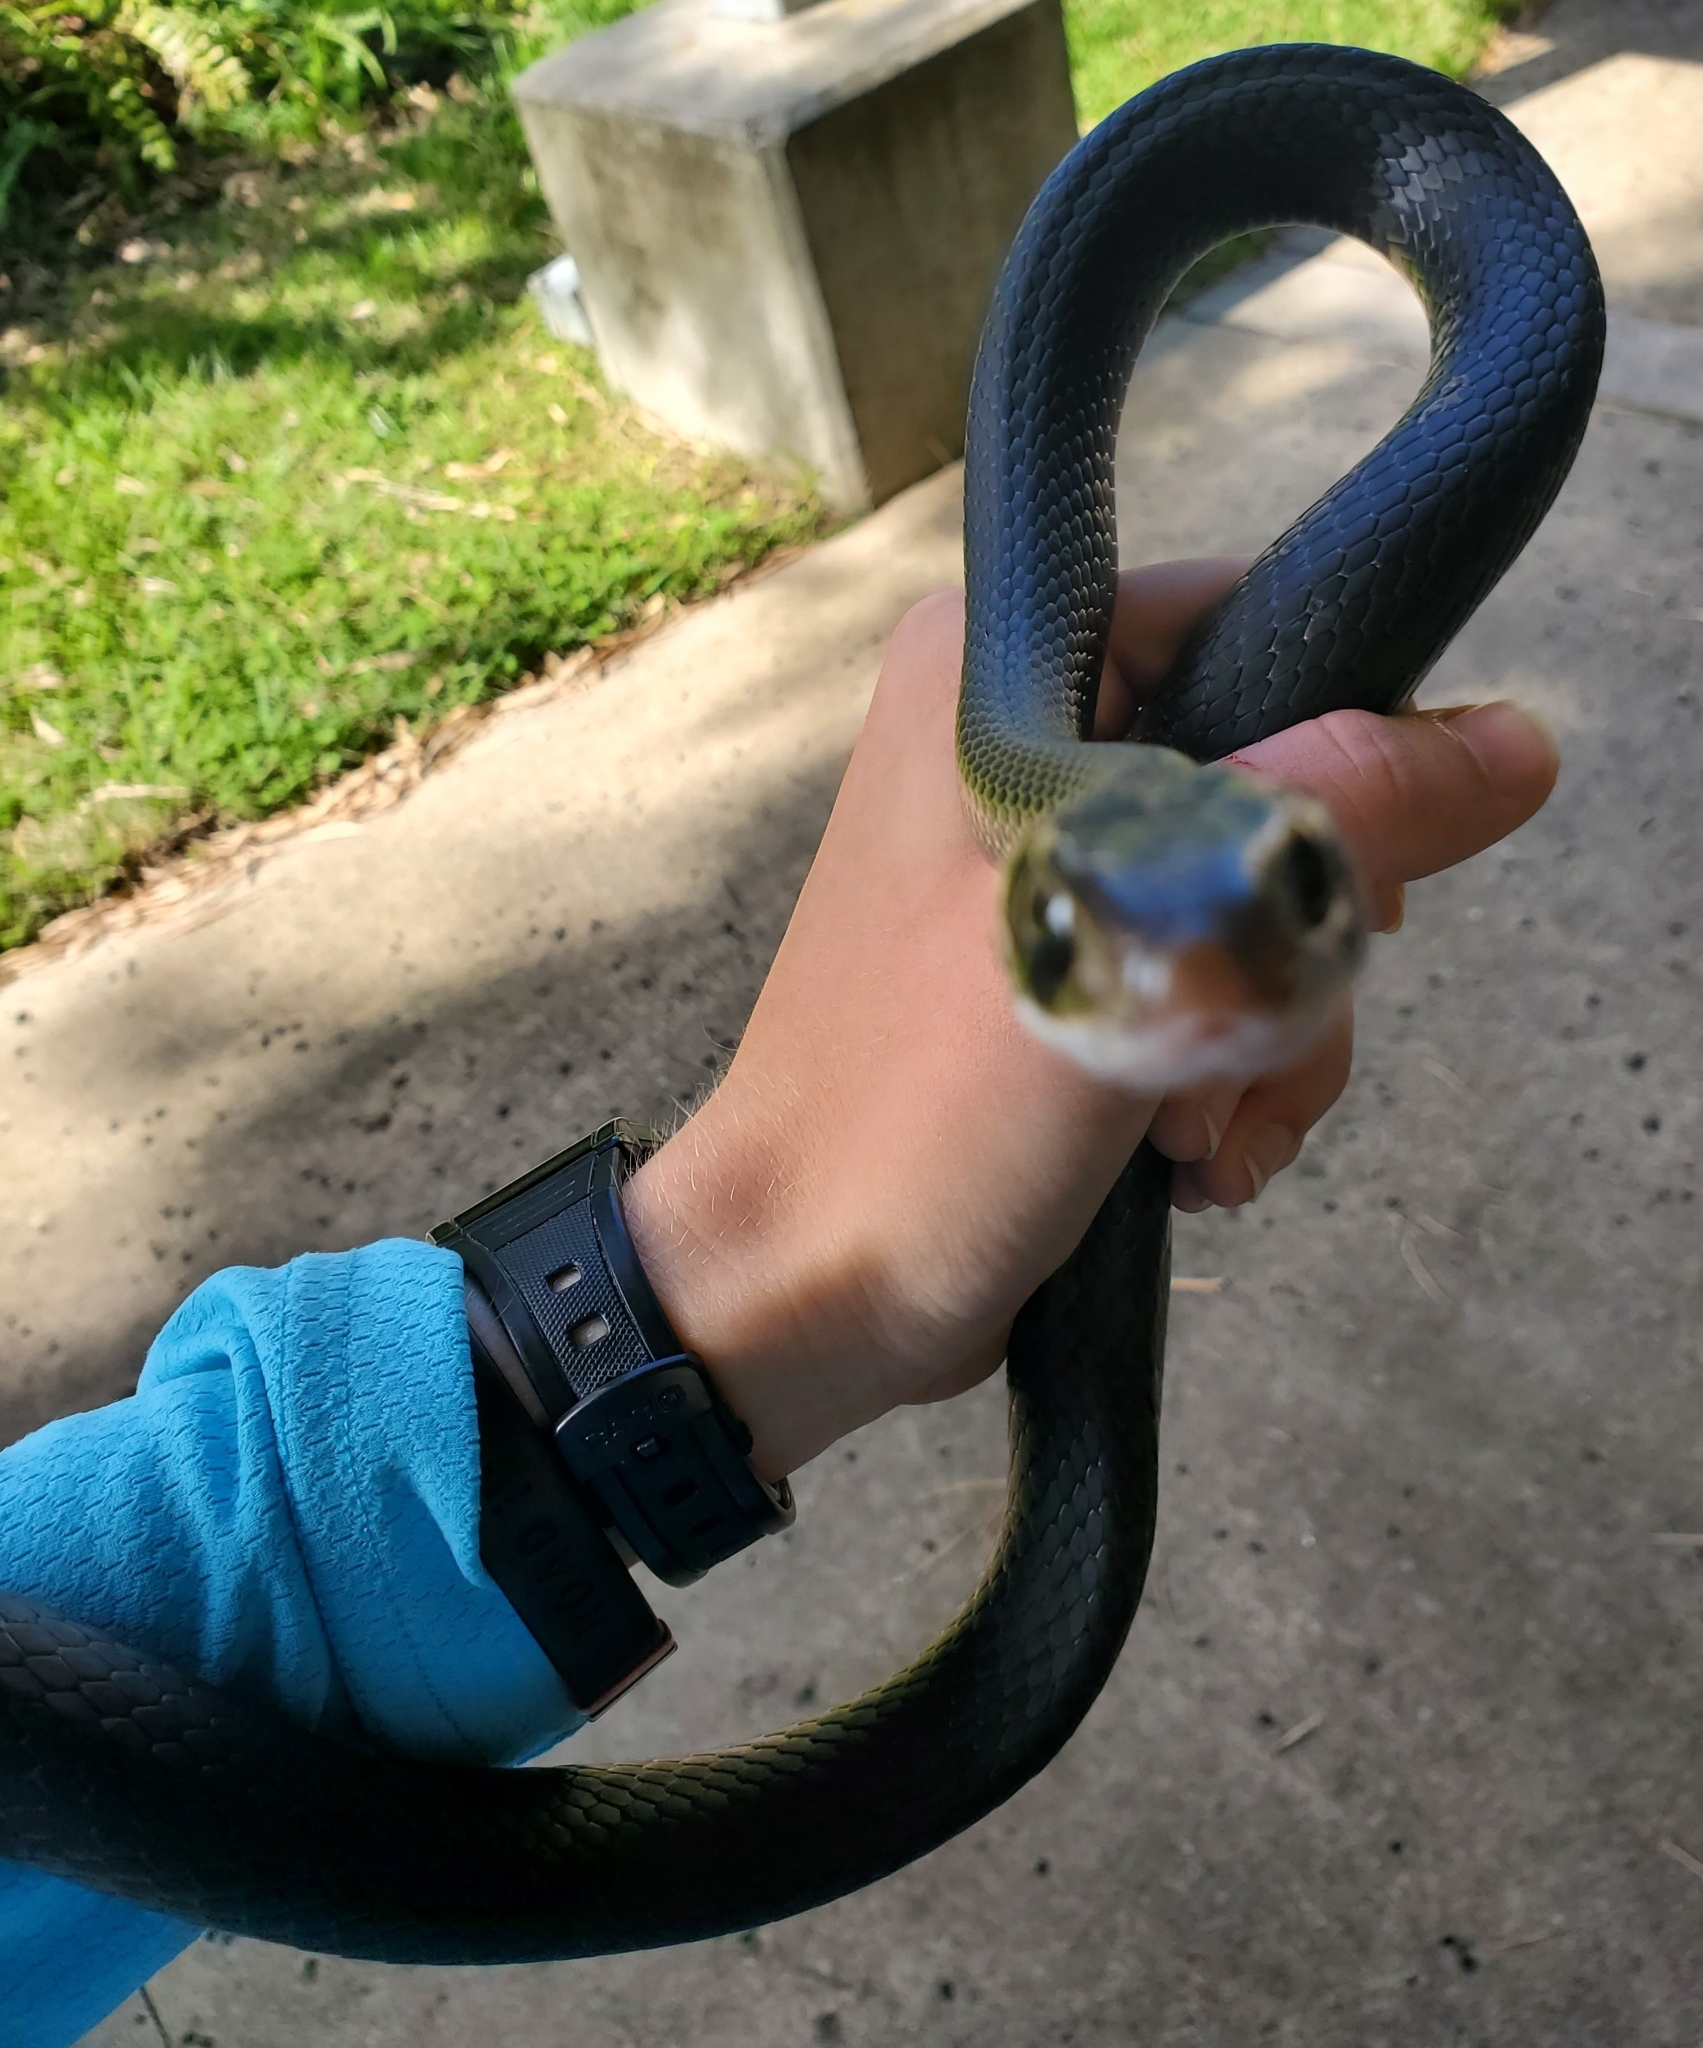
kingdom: Animalia
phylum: Chordata
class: Squamata
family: Colubridae
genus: Coluber
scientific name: Coluber constrictor
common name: Eastern racer
